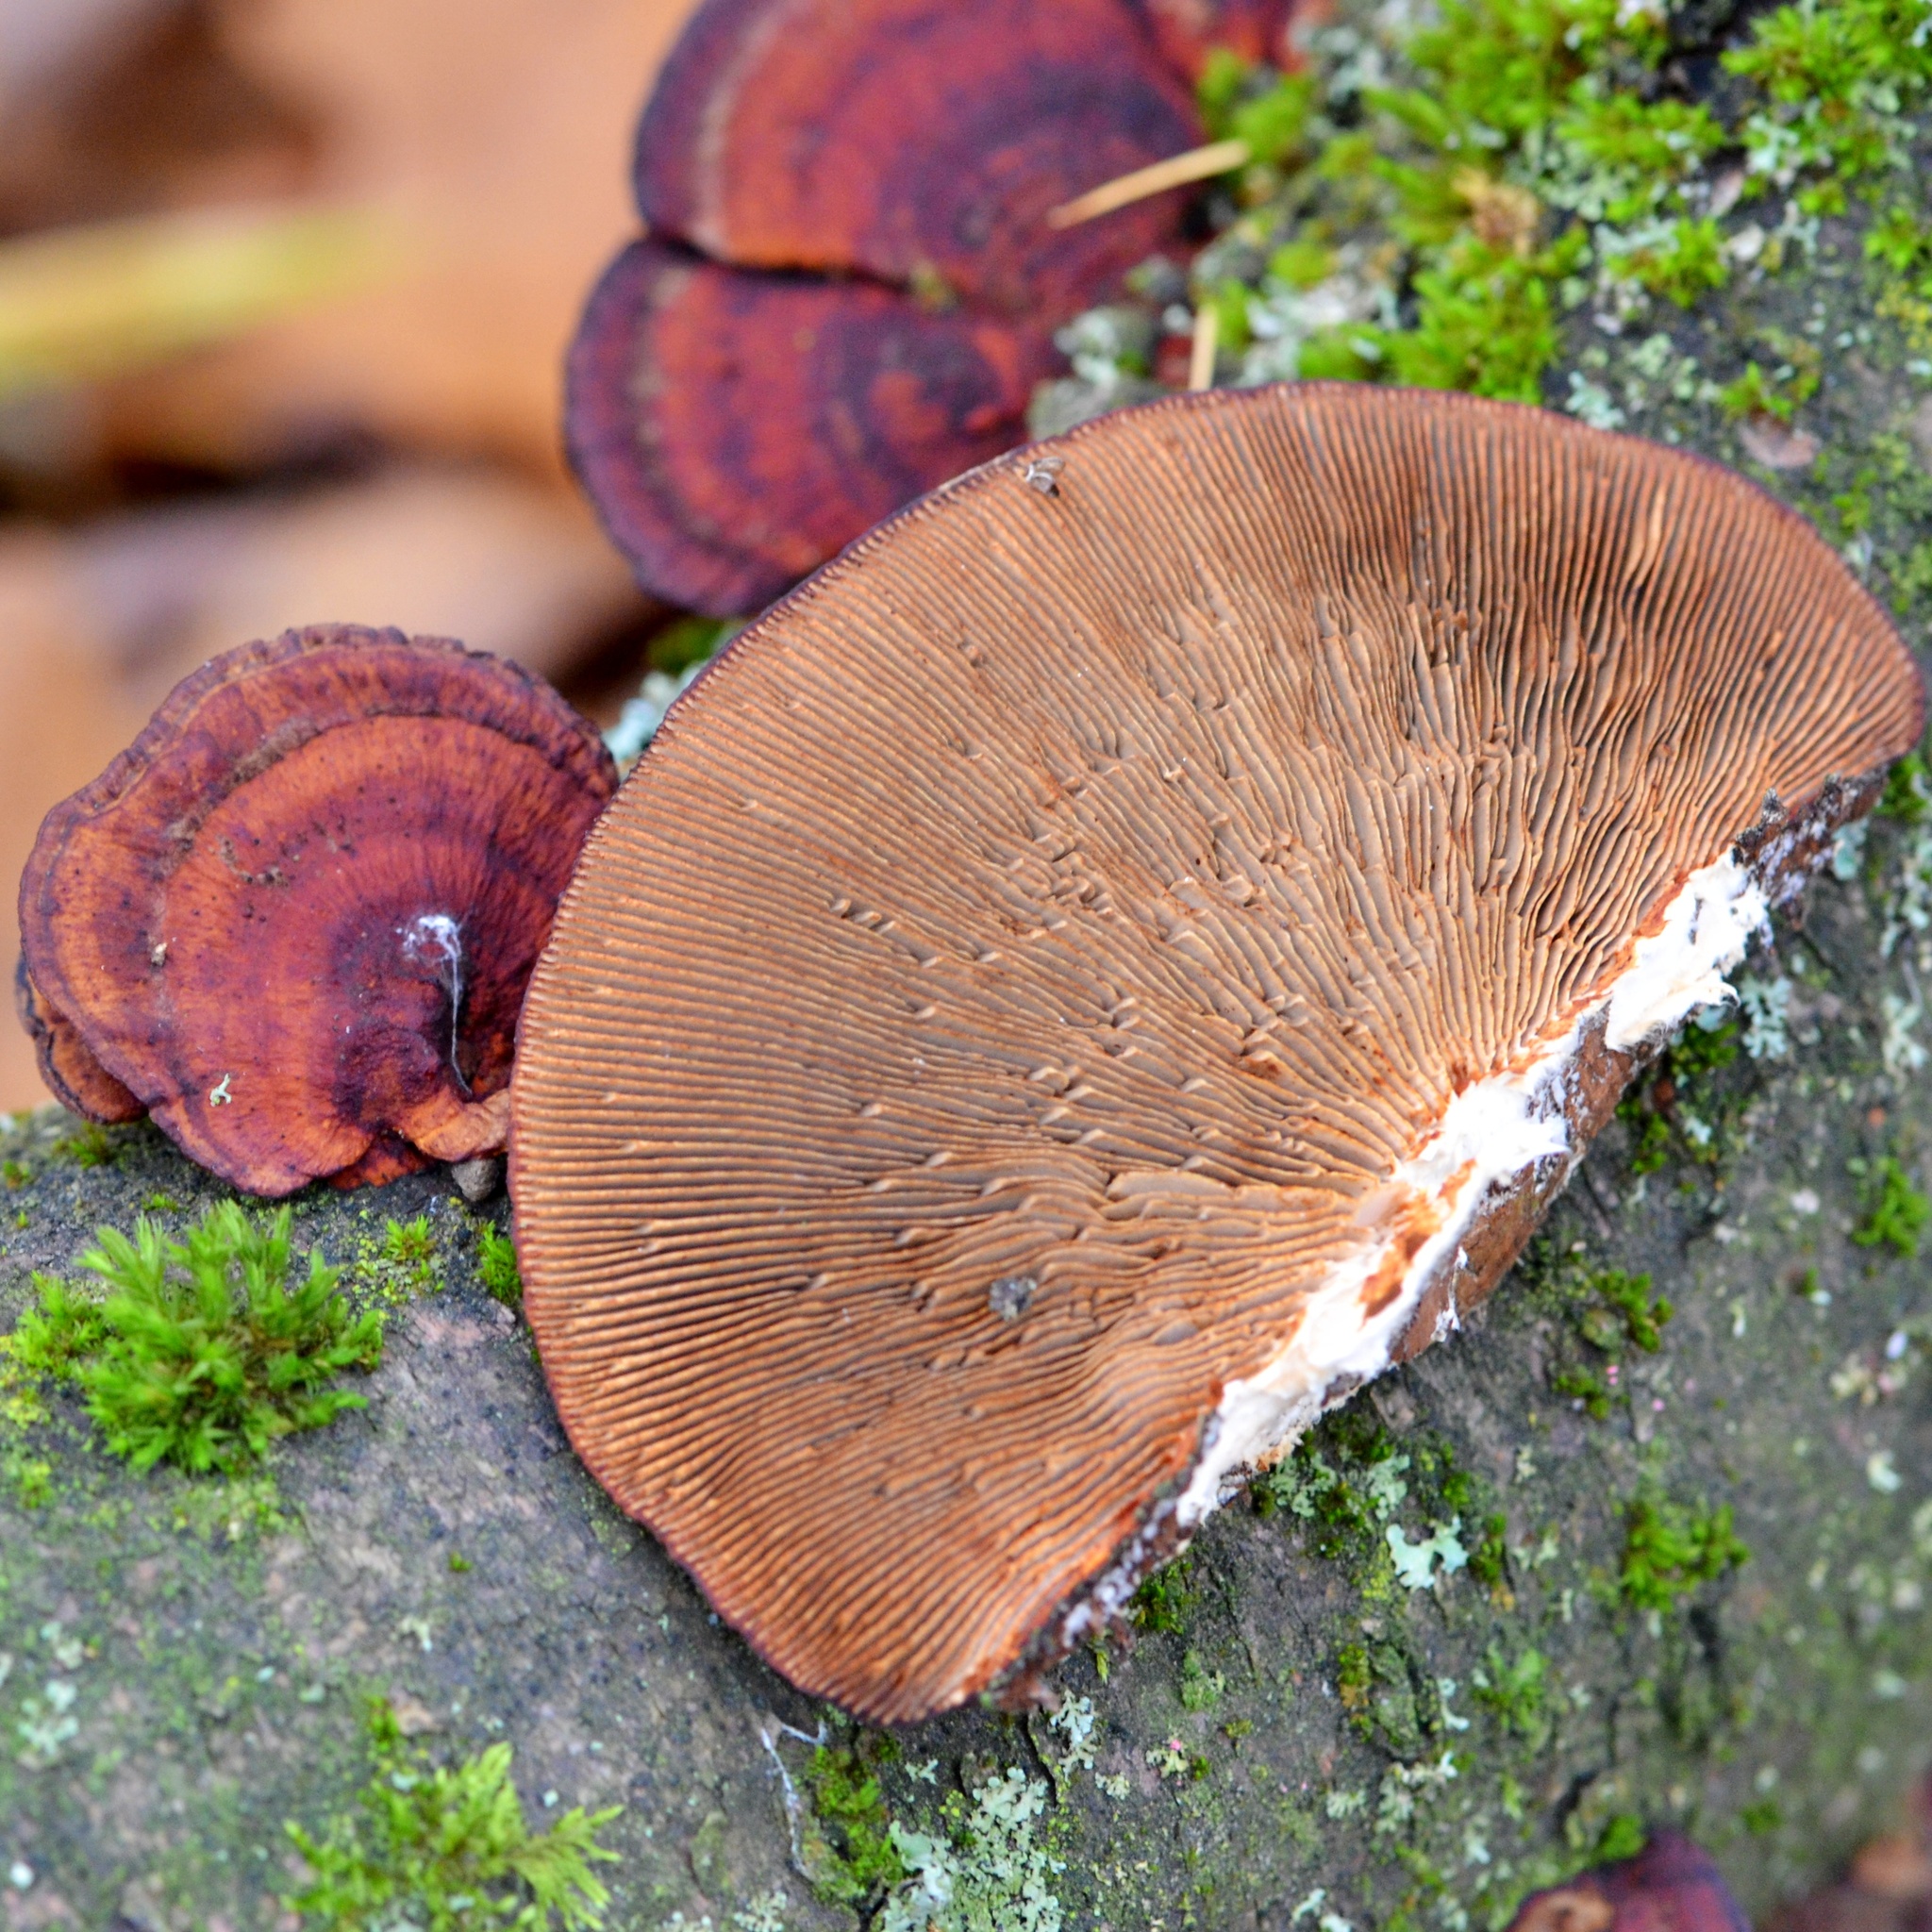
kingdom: Fungi
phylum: Basidiomycota
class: Agaricomycetes
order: Polyporales
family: Polyporaceae
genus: Daedaleopsis
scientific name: Daedaleopsis tricolor
